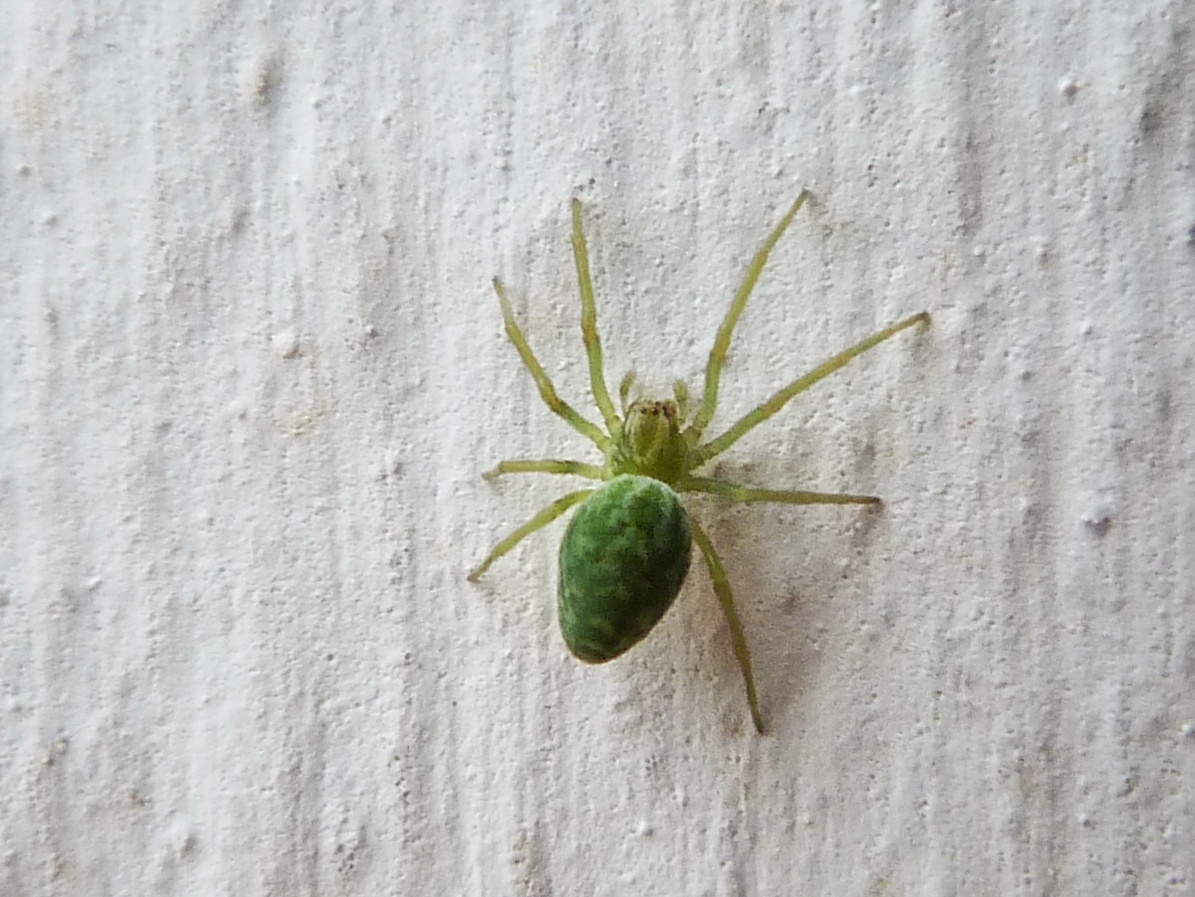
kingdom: Animalia
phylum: Arthropoda
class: Arachnida
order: Araneae
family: Dictynidae
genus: Nigma
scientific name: Nigma walckenaeri
